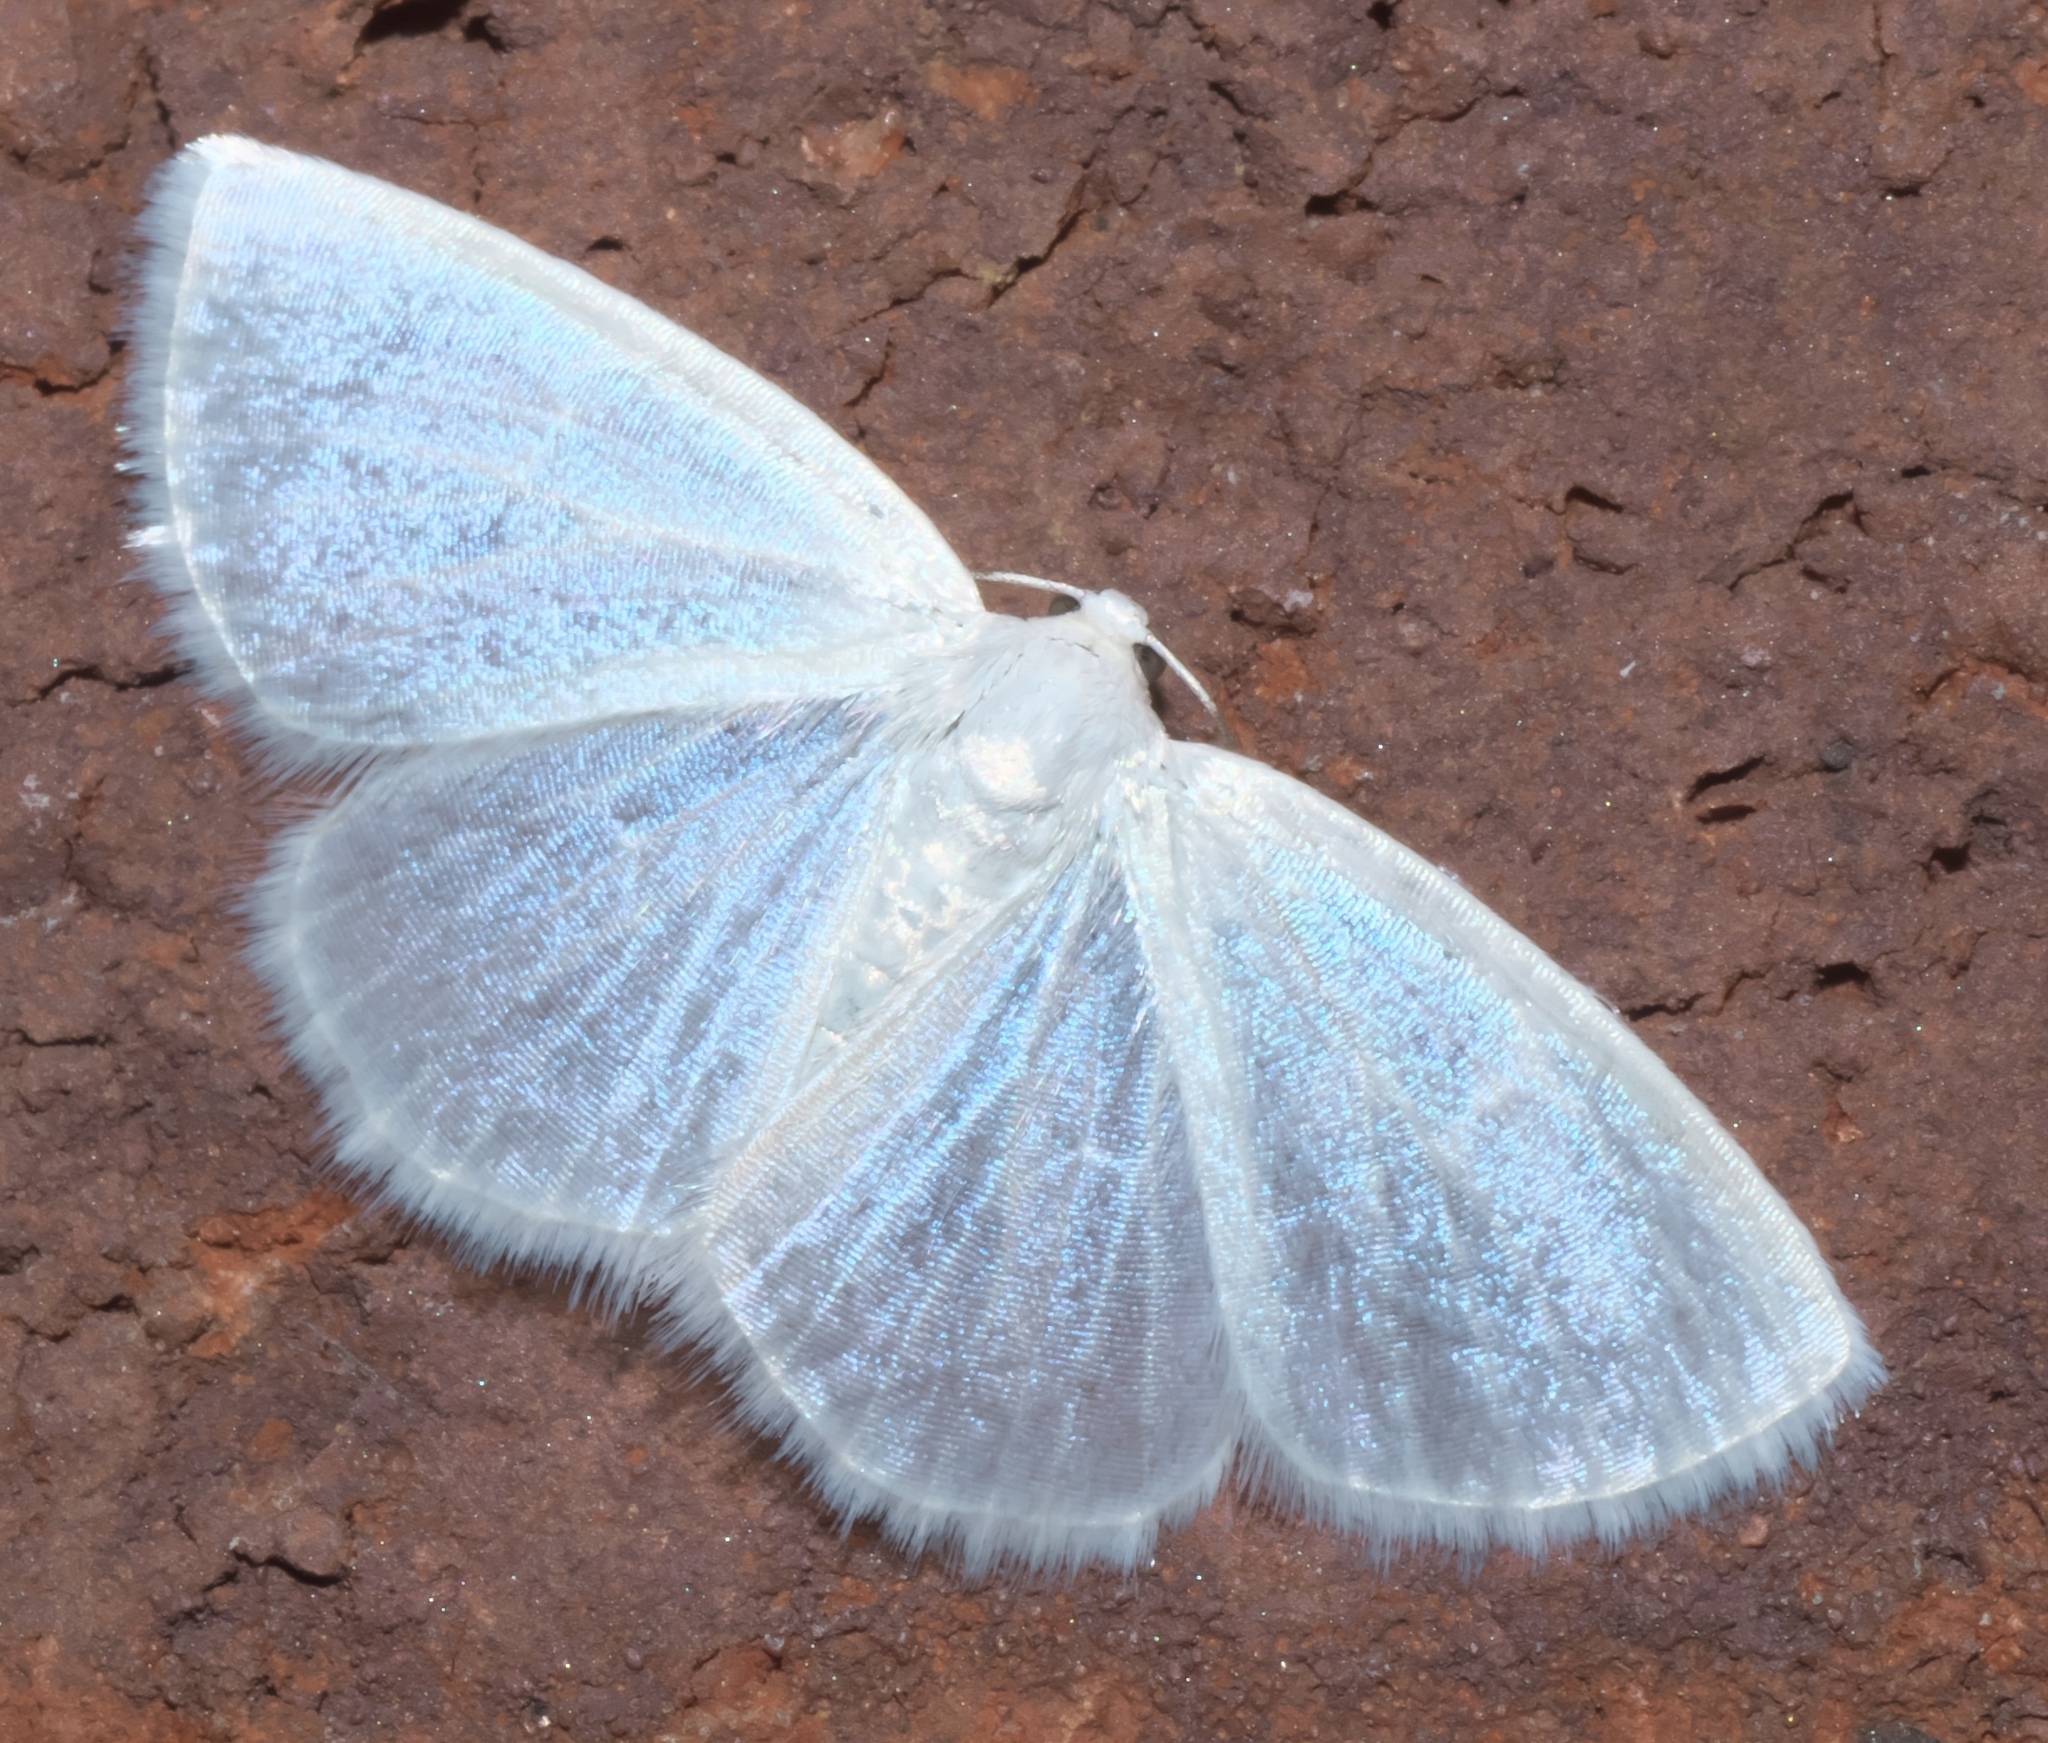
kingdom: Animalia
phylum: Arthropoda
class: Insecta
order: Lepidoptera
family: Geometridae
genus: Lomographa
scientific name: Lomographa vestaliata
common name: White spring moth
